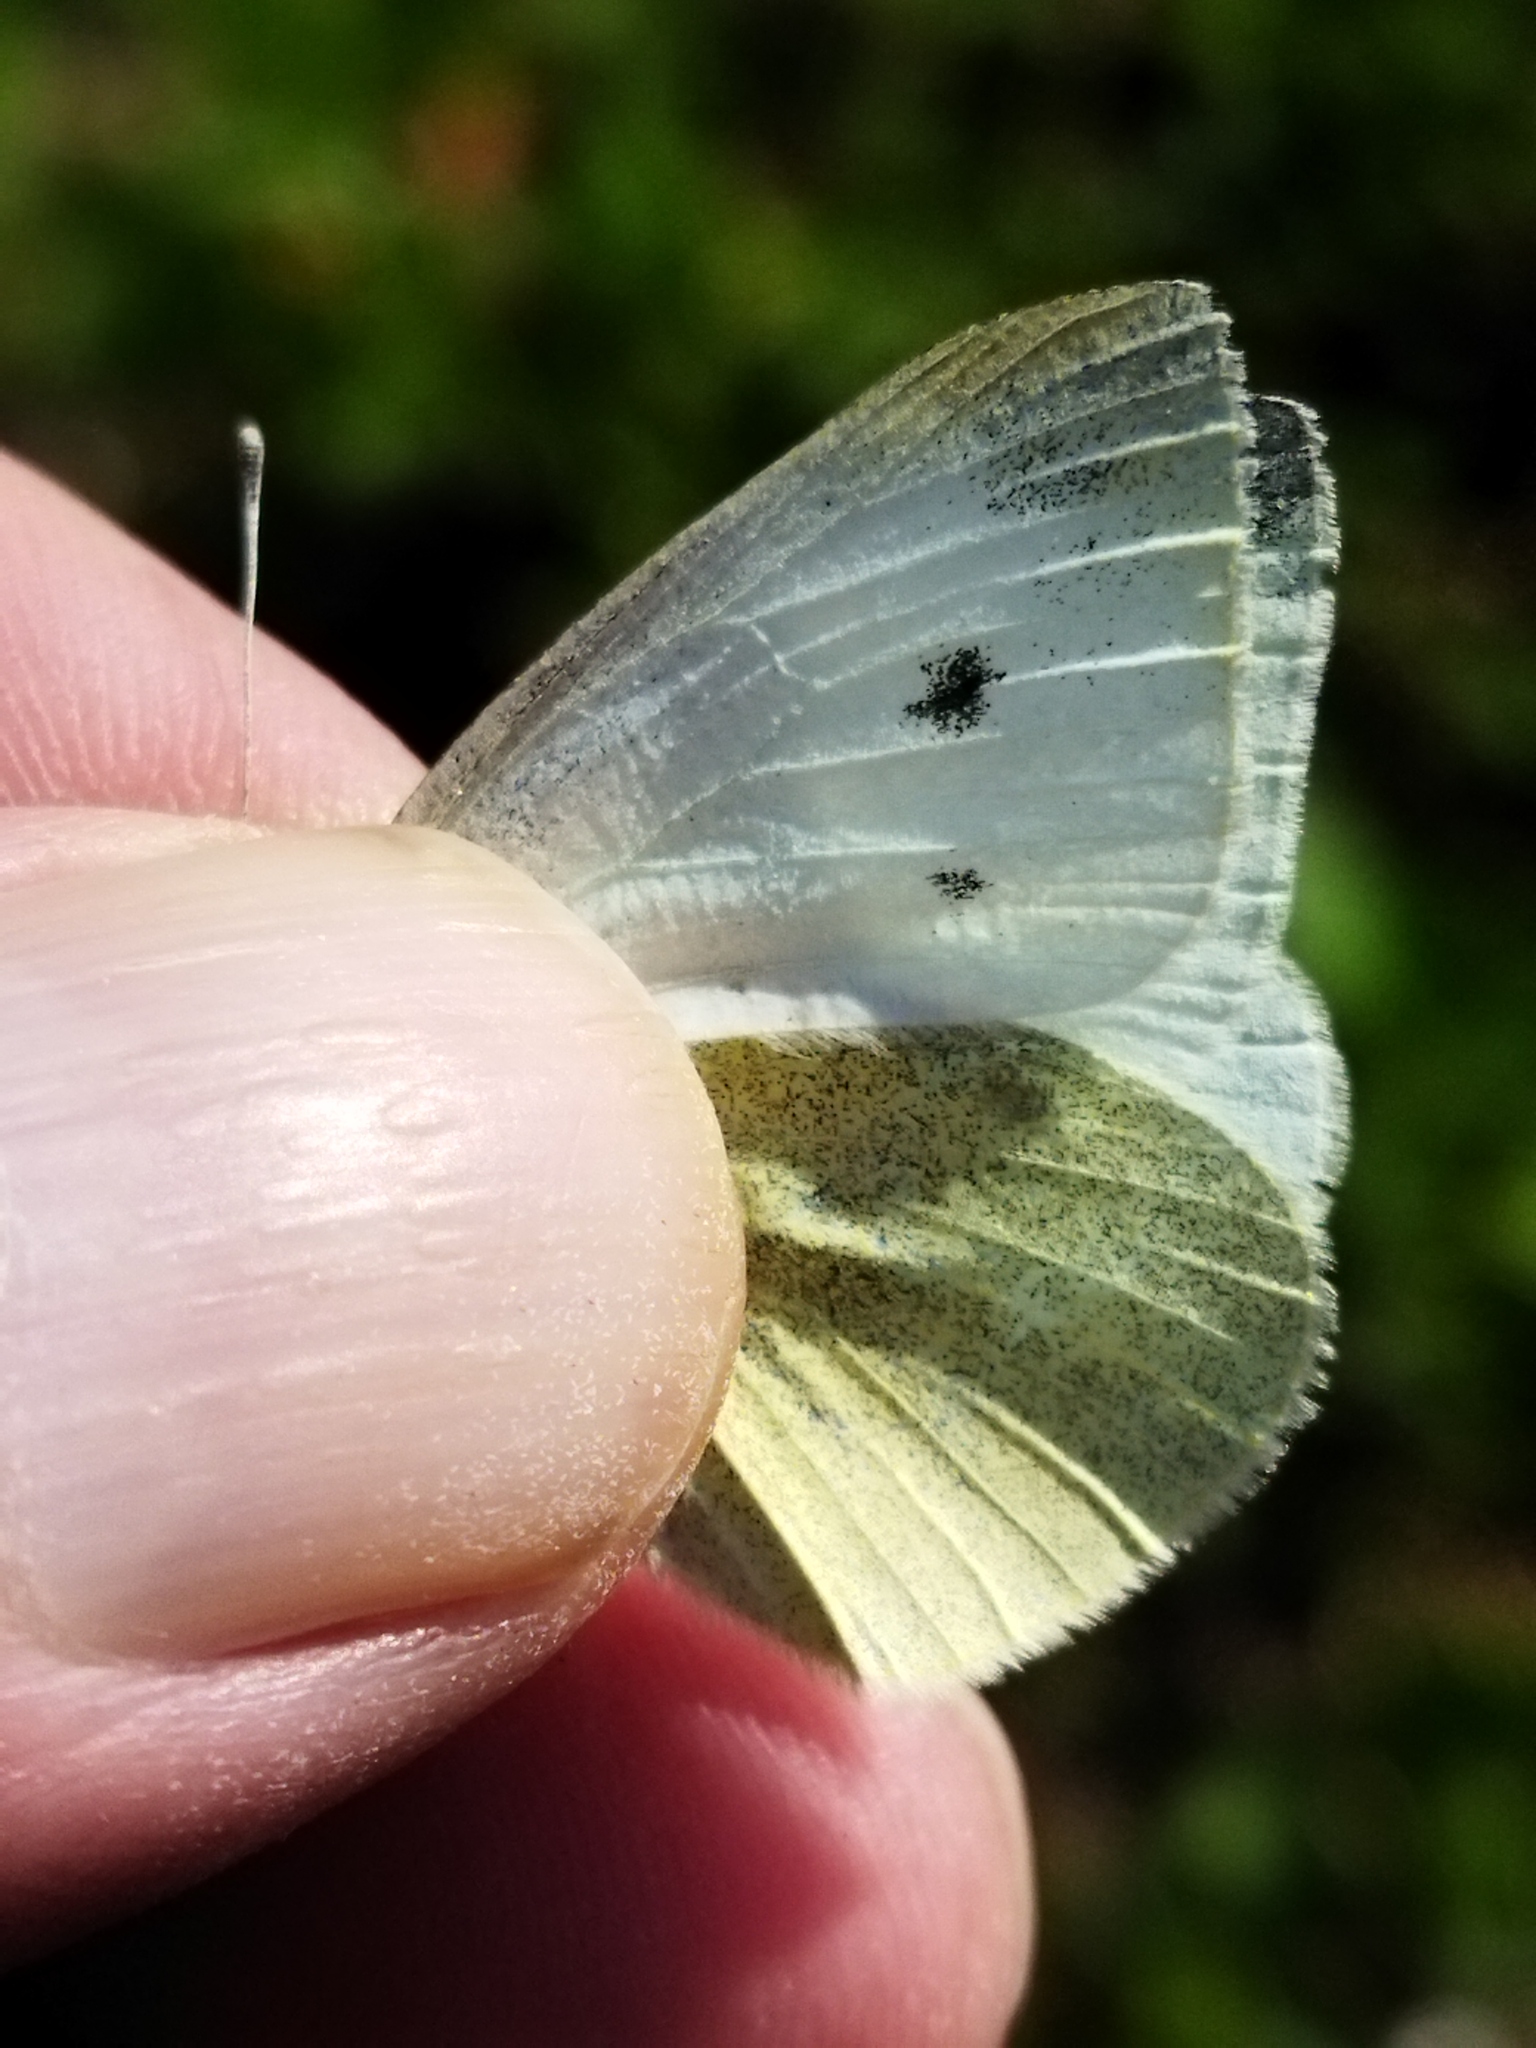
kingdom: Animalia
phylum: Arthropoda
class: Insecta
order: Lepidoptera
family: Pieridae
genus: Pieris
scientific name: Pieris rapae
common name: Small white
